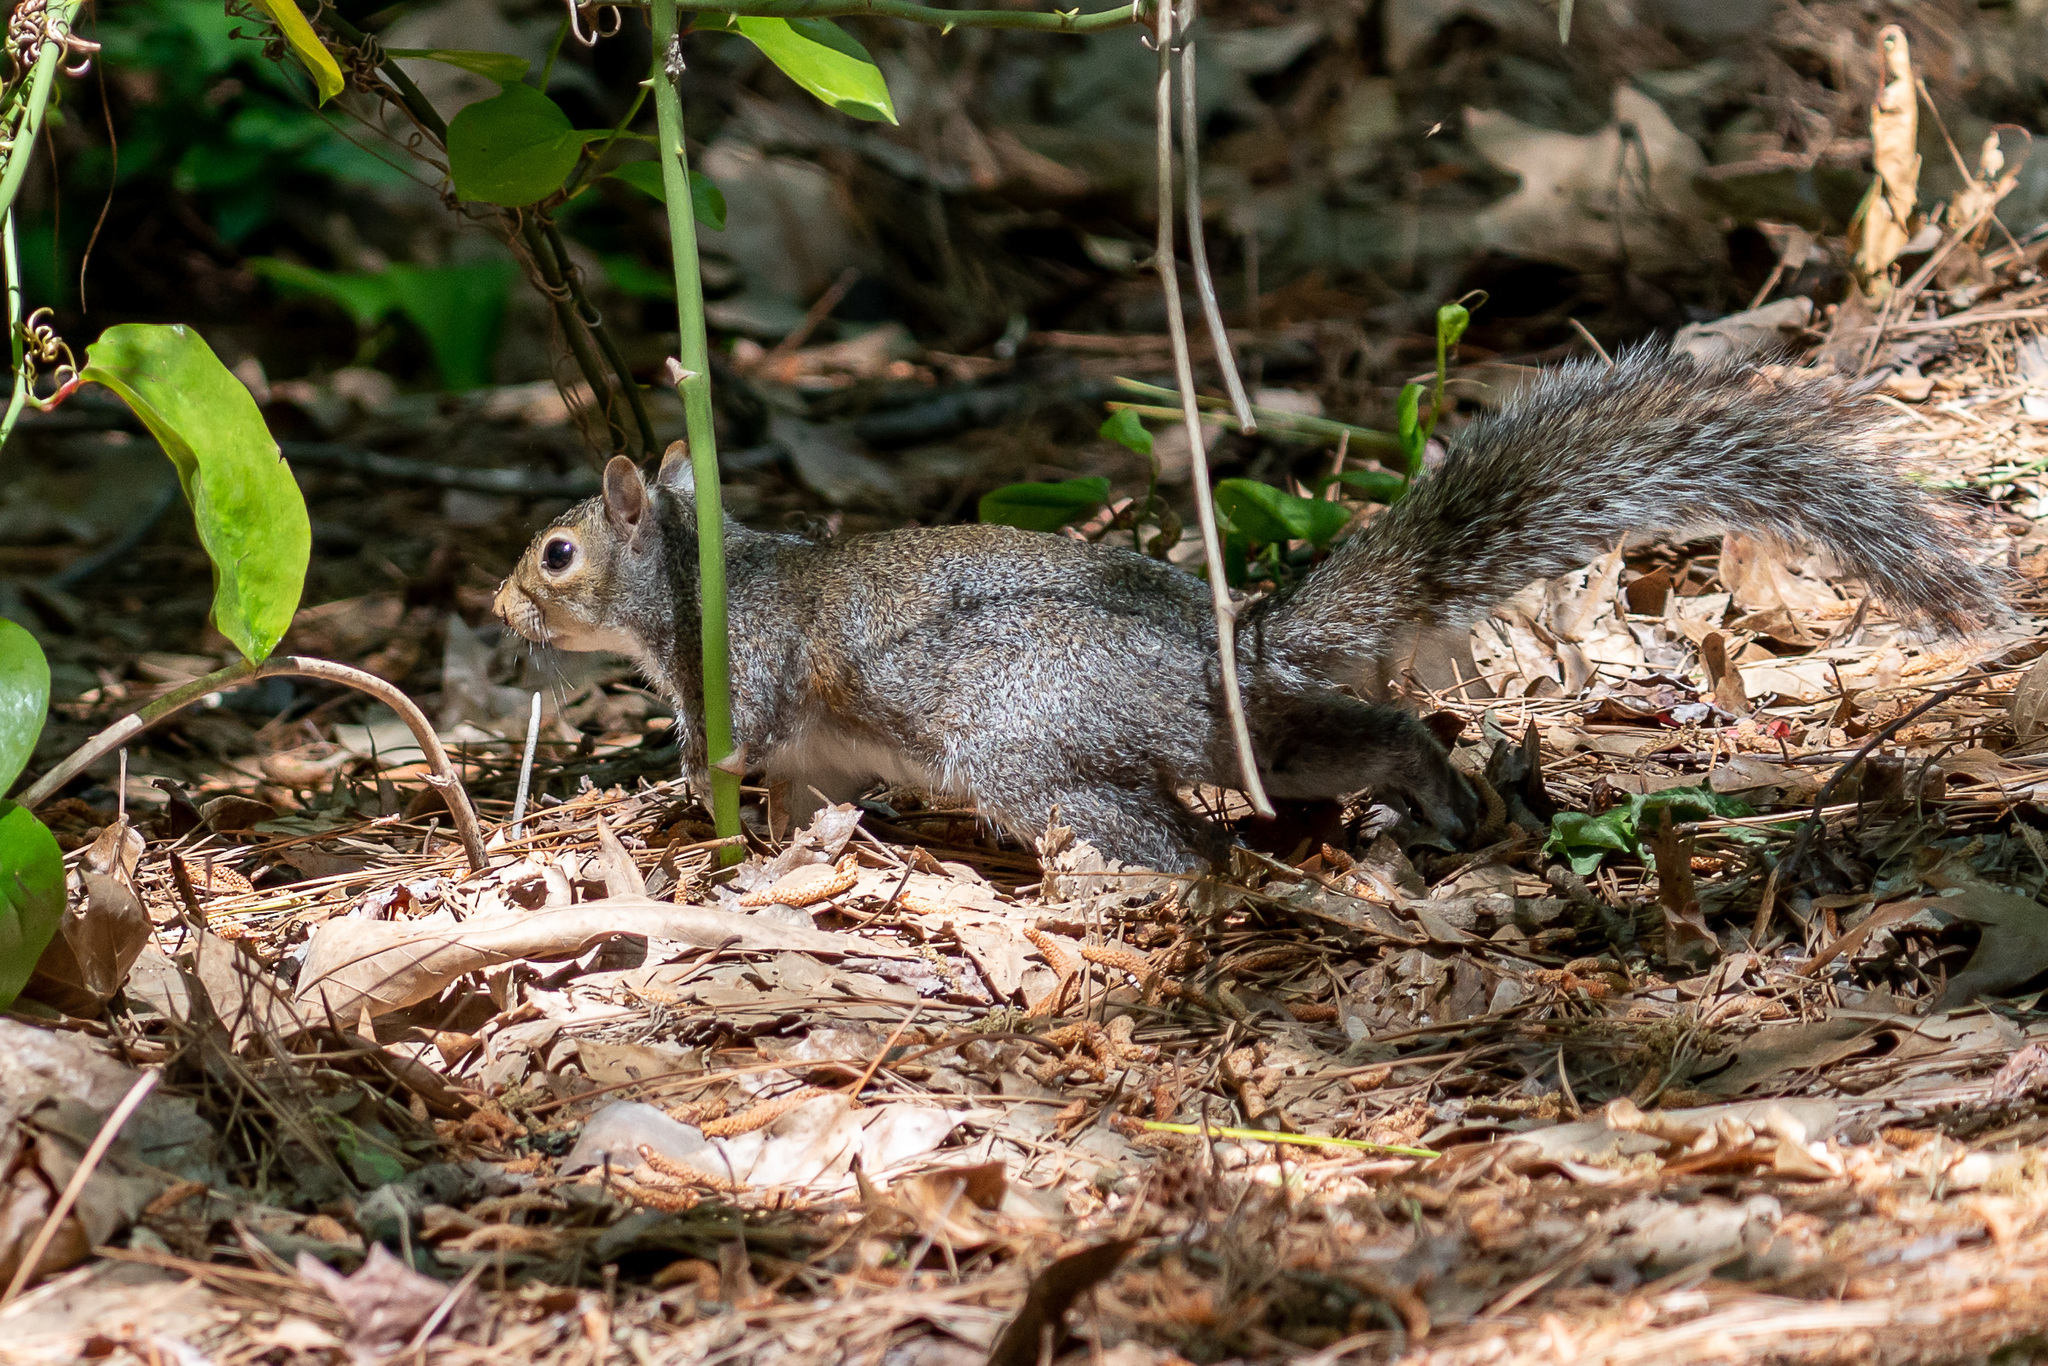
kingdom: Animalia
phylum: Chordata
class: Mammalia
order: Rodentia
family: Sciuridae
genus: Sciurus
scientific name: Sciurus carolinensis
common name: Eastern gray squirrel
